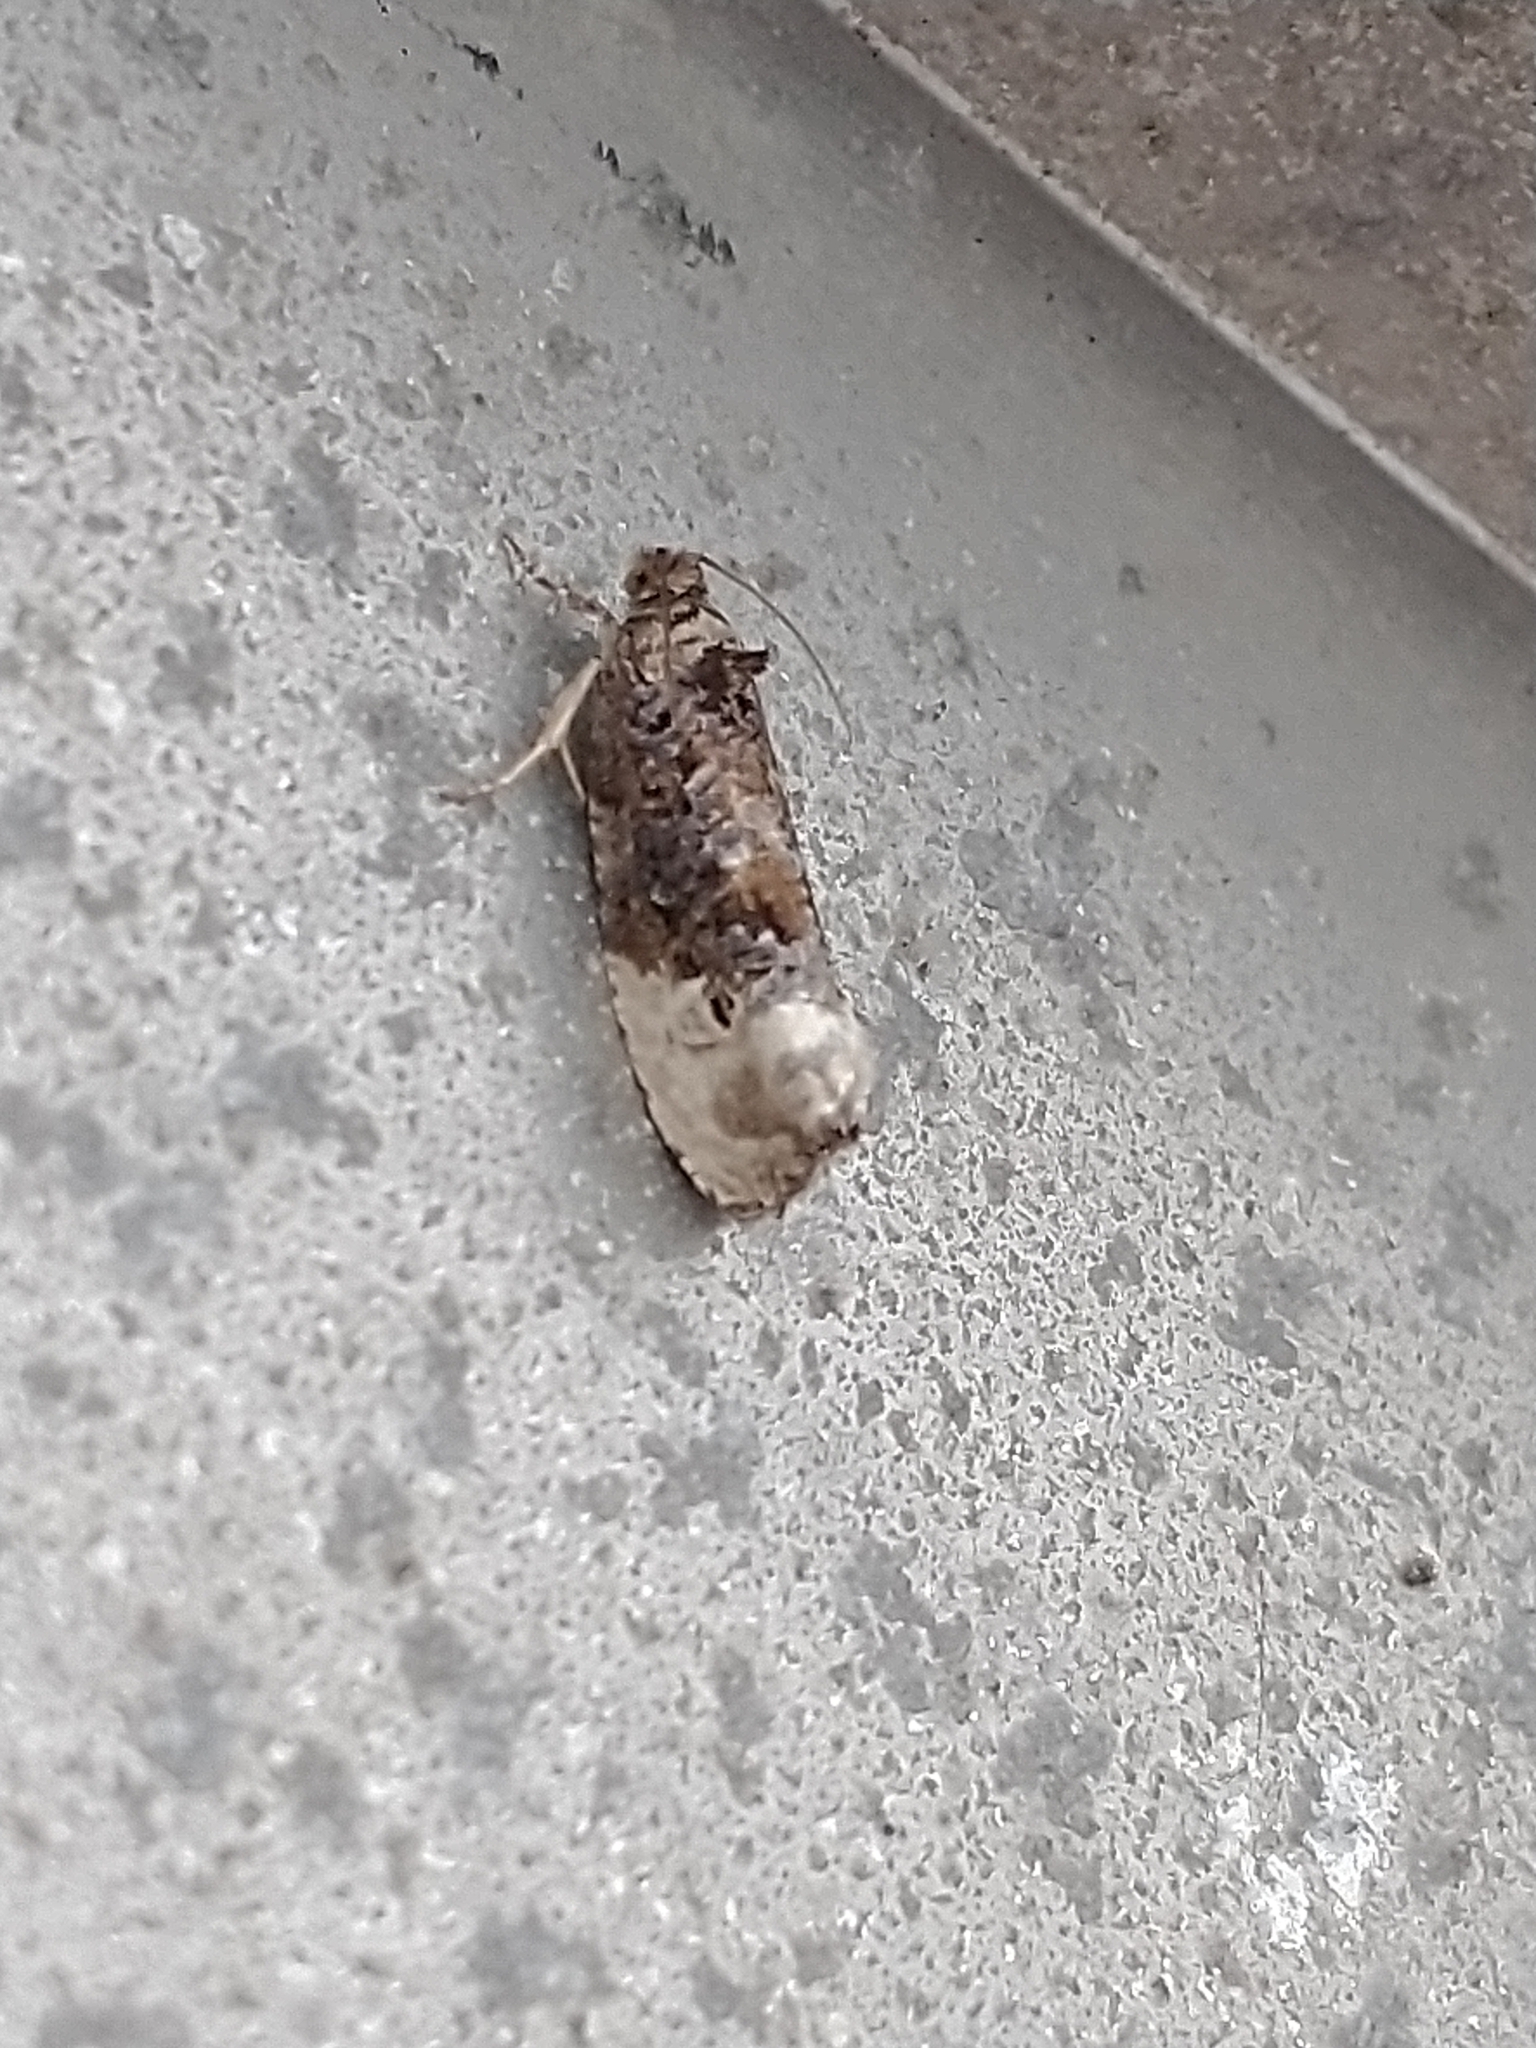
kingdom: Animalia
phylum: Arthropoda
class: Insecta
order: Lepidoptera
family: Tortricidae
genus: Hedya
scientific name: Hedya nubiferana
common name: Marbled orchard tortrix
